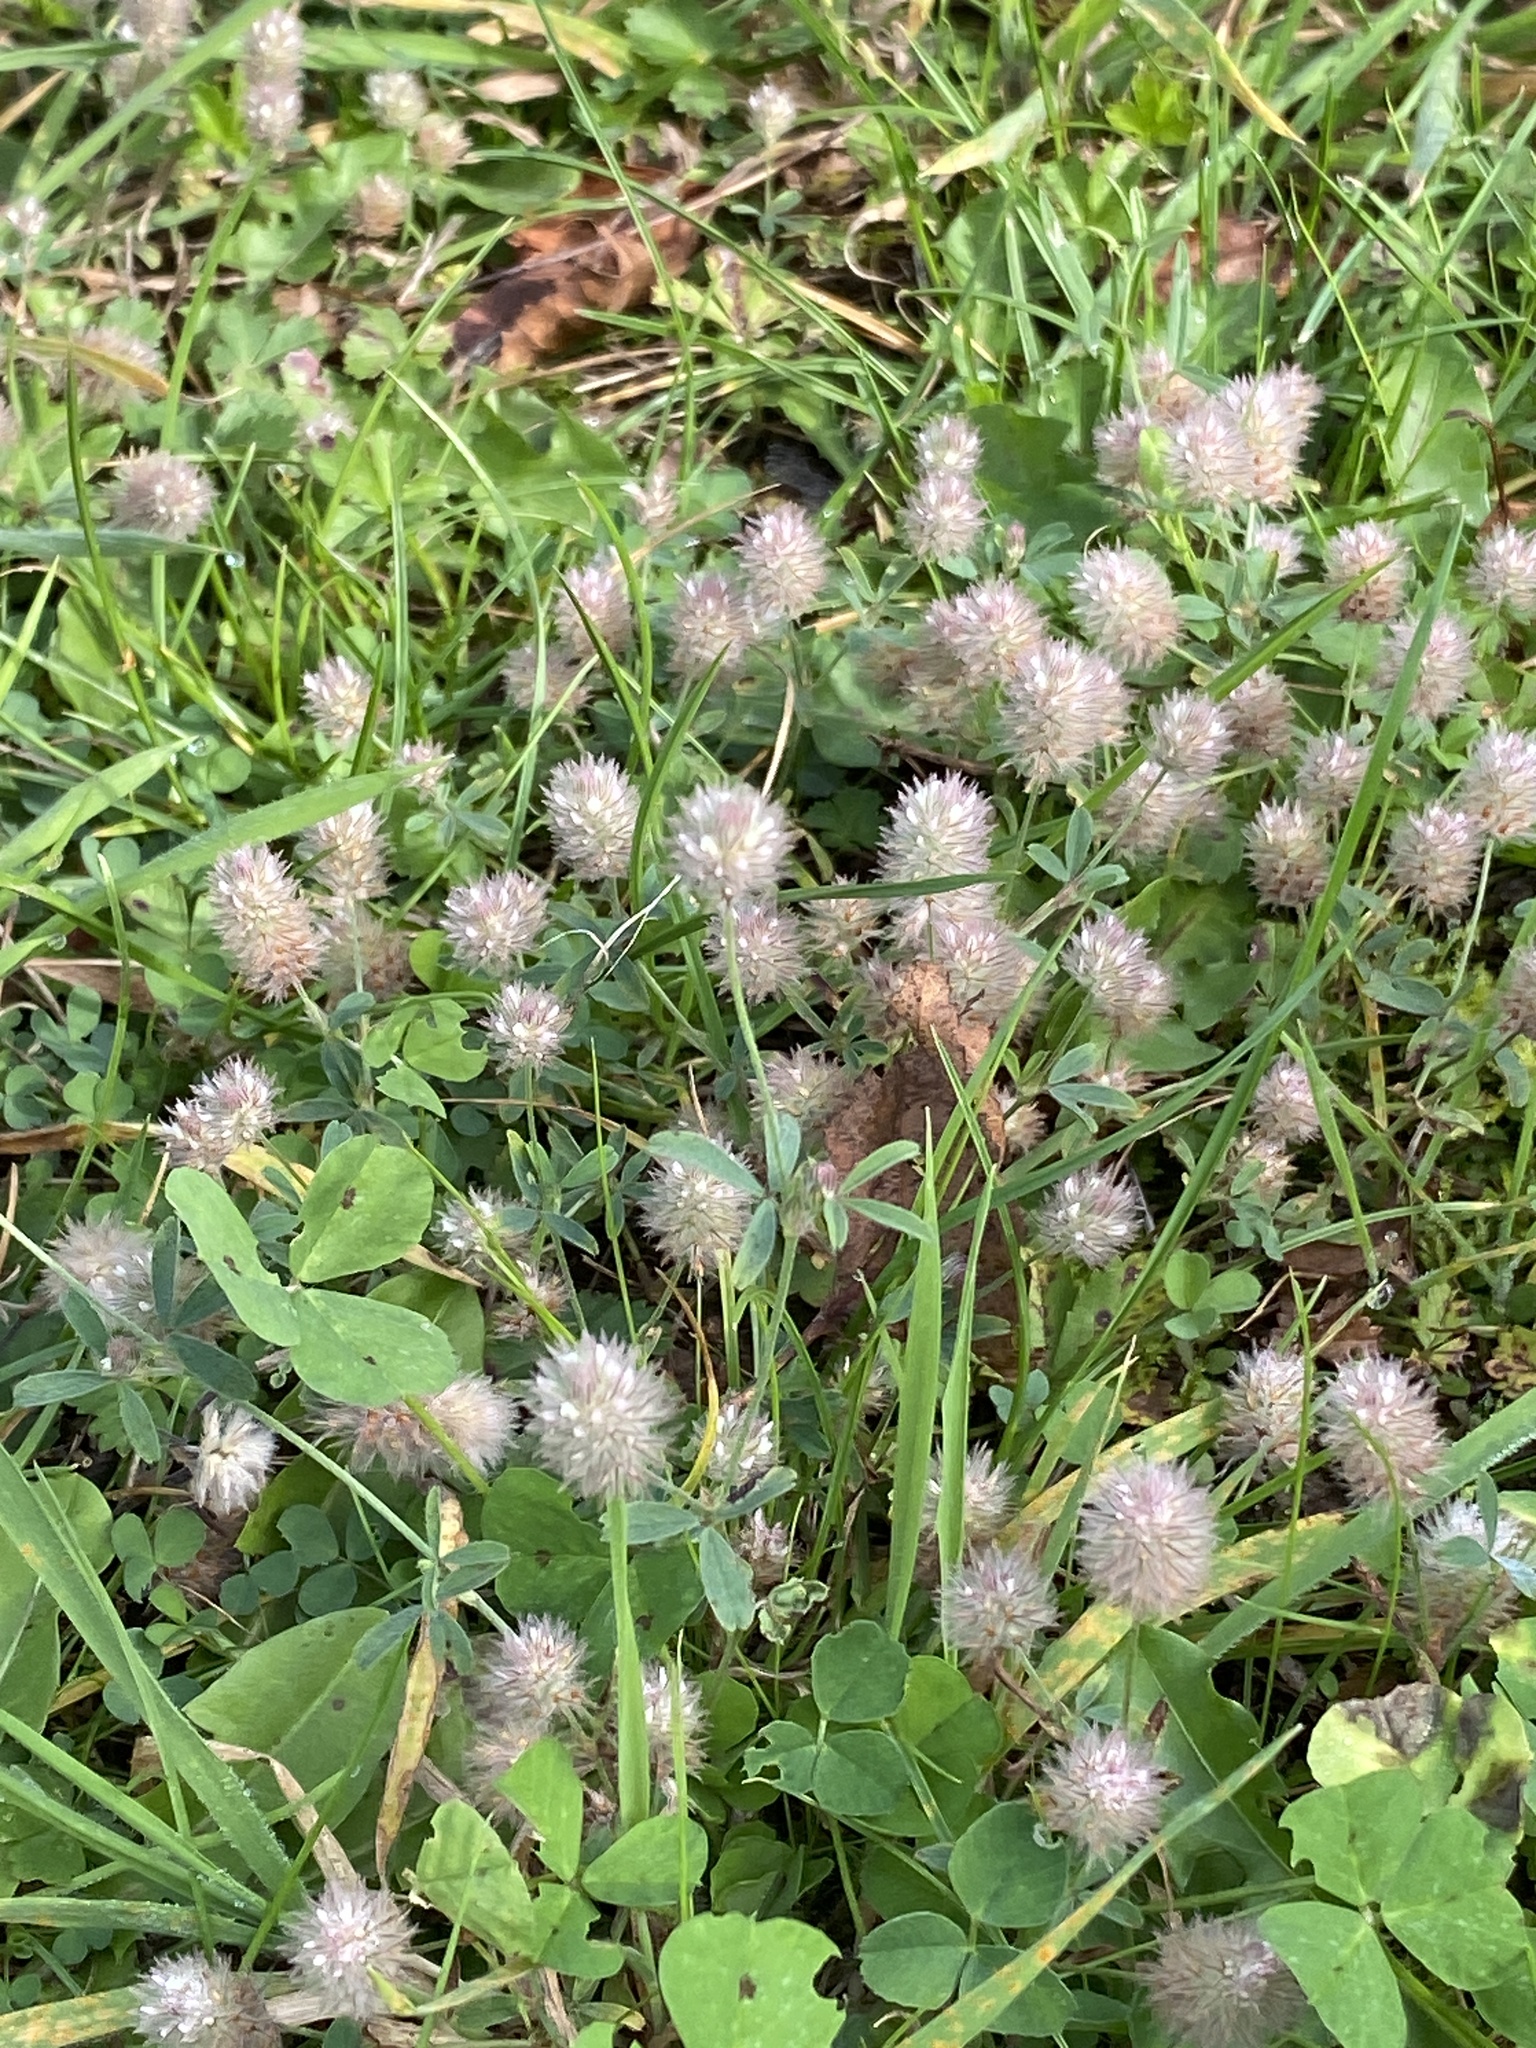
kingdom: Plantae
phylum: Tracheophyta
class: Magnoliopsida
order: Fabales
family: Fabaceae
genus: Trifolium
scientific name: Trifolium arvense
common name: Hare's-foot clover
